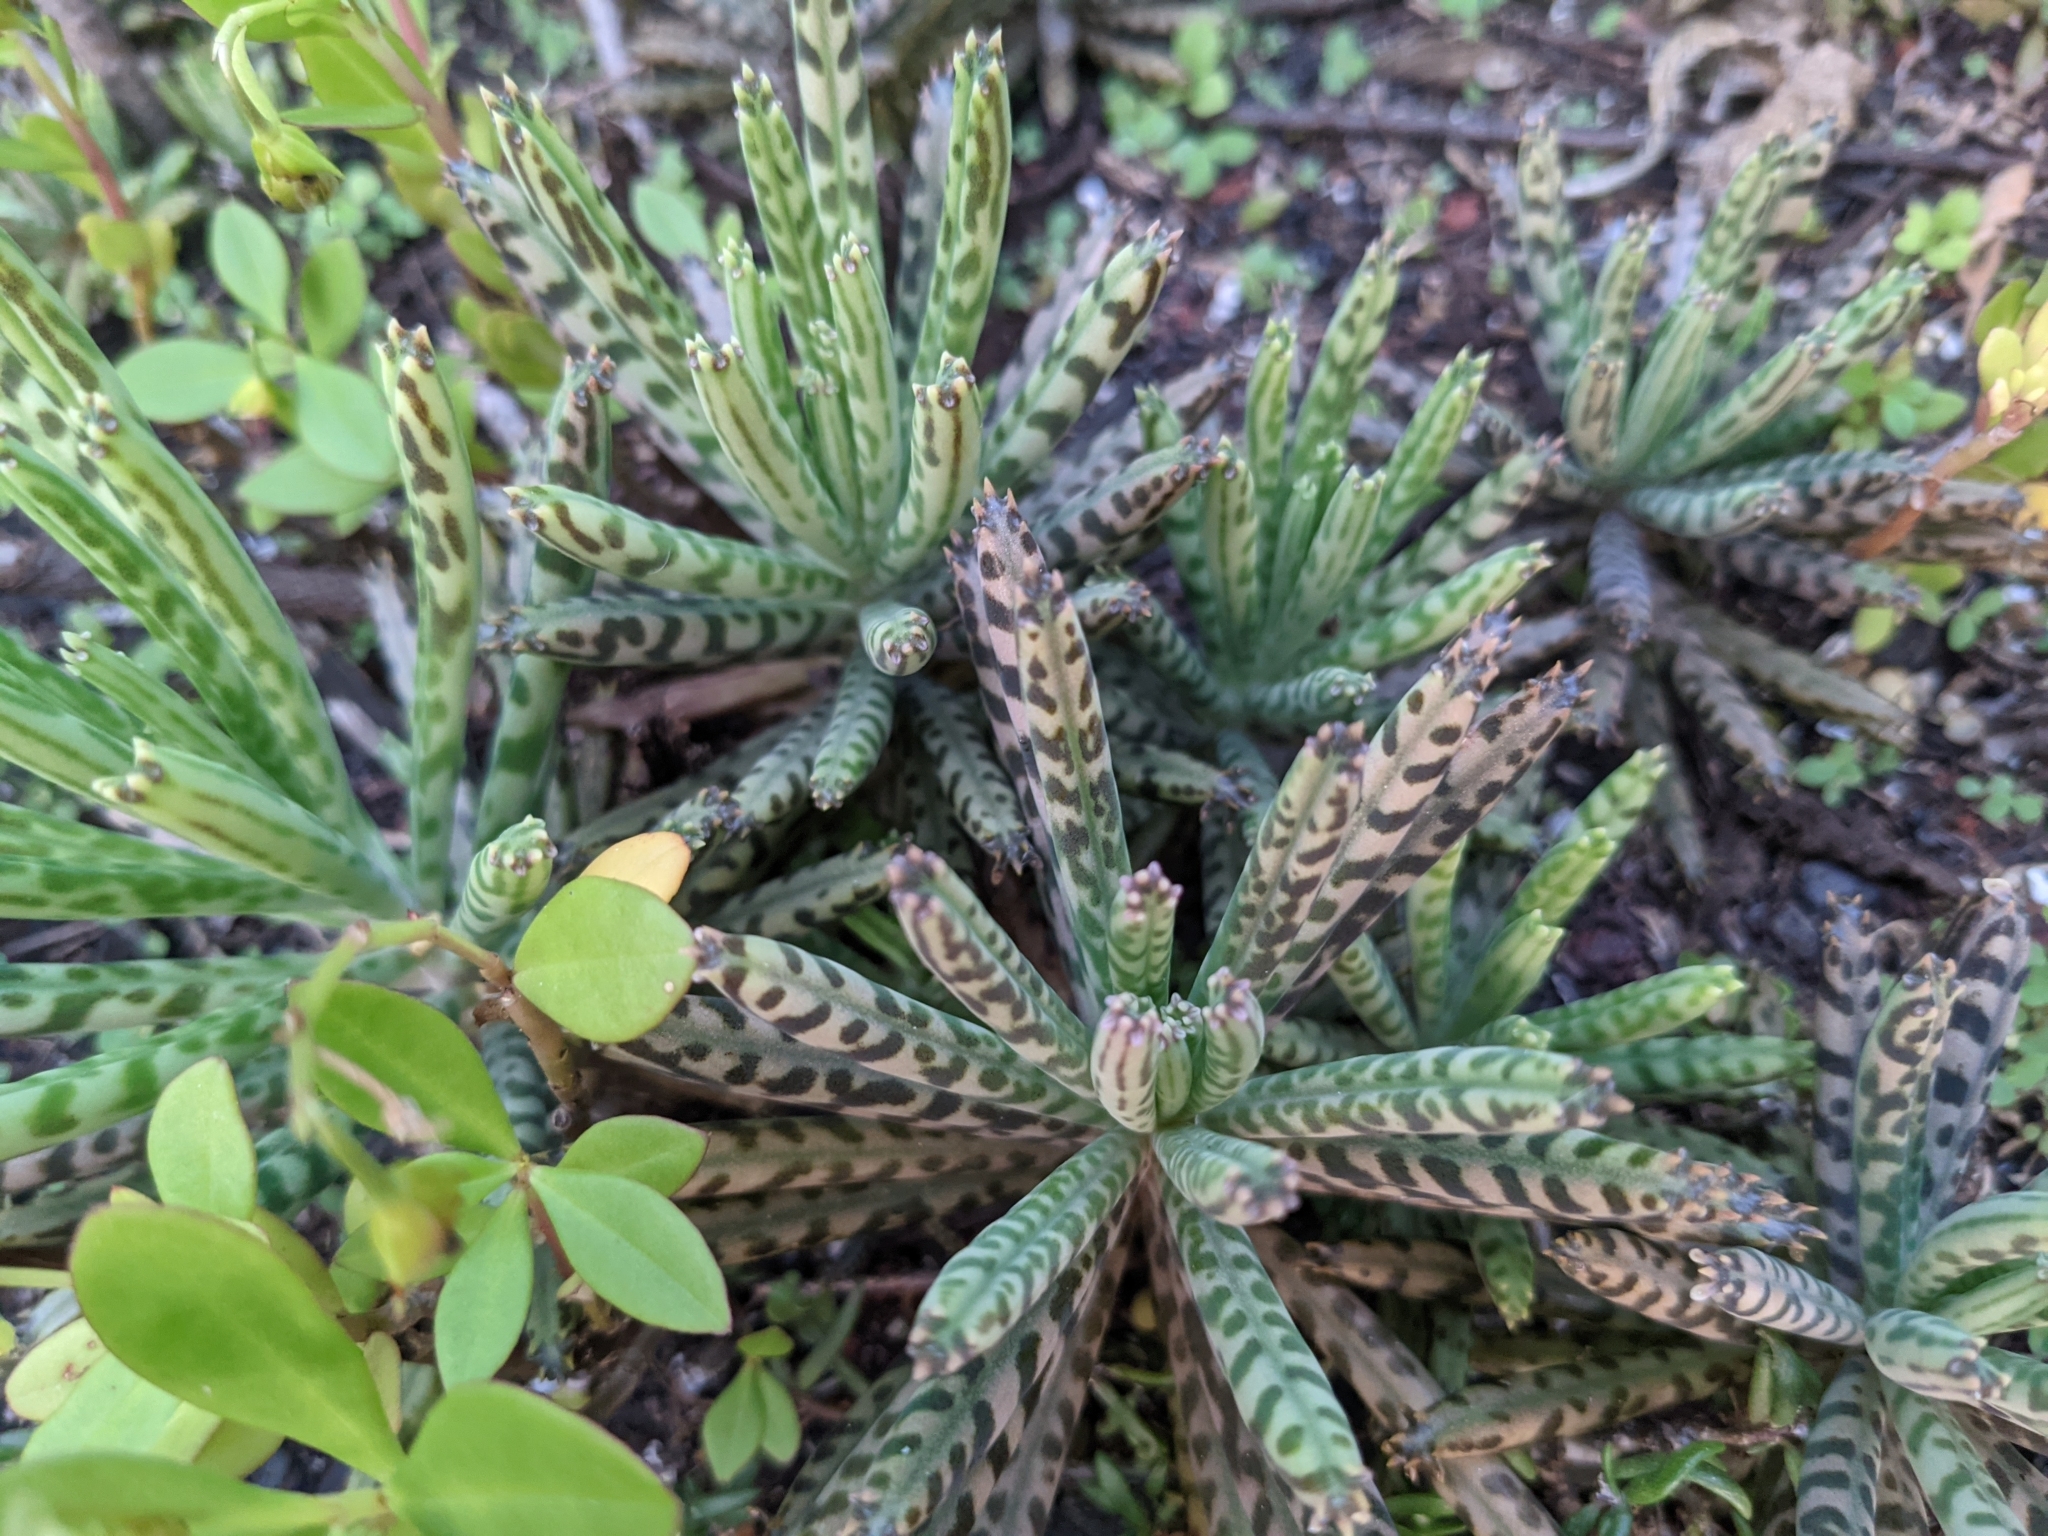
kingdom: Plantae
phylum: Tracheophyta
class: Magnoliopsida
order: Saxifragales
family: Crassulaceae
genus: Kalanchoe
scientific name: Kalanchoe delagoensis
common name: Chandelier plant
